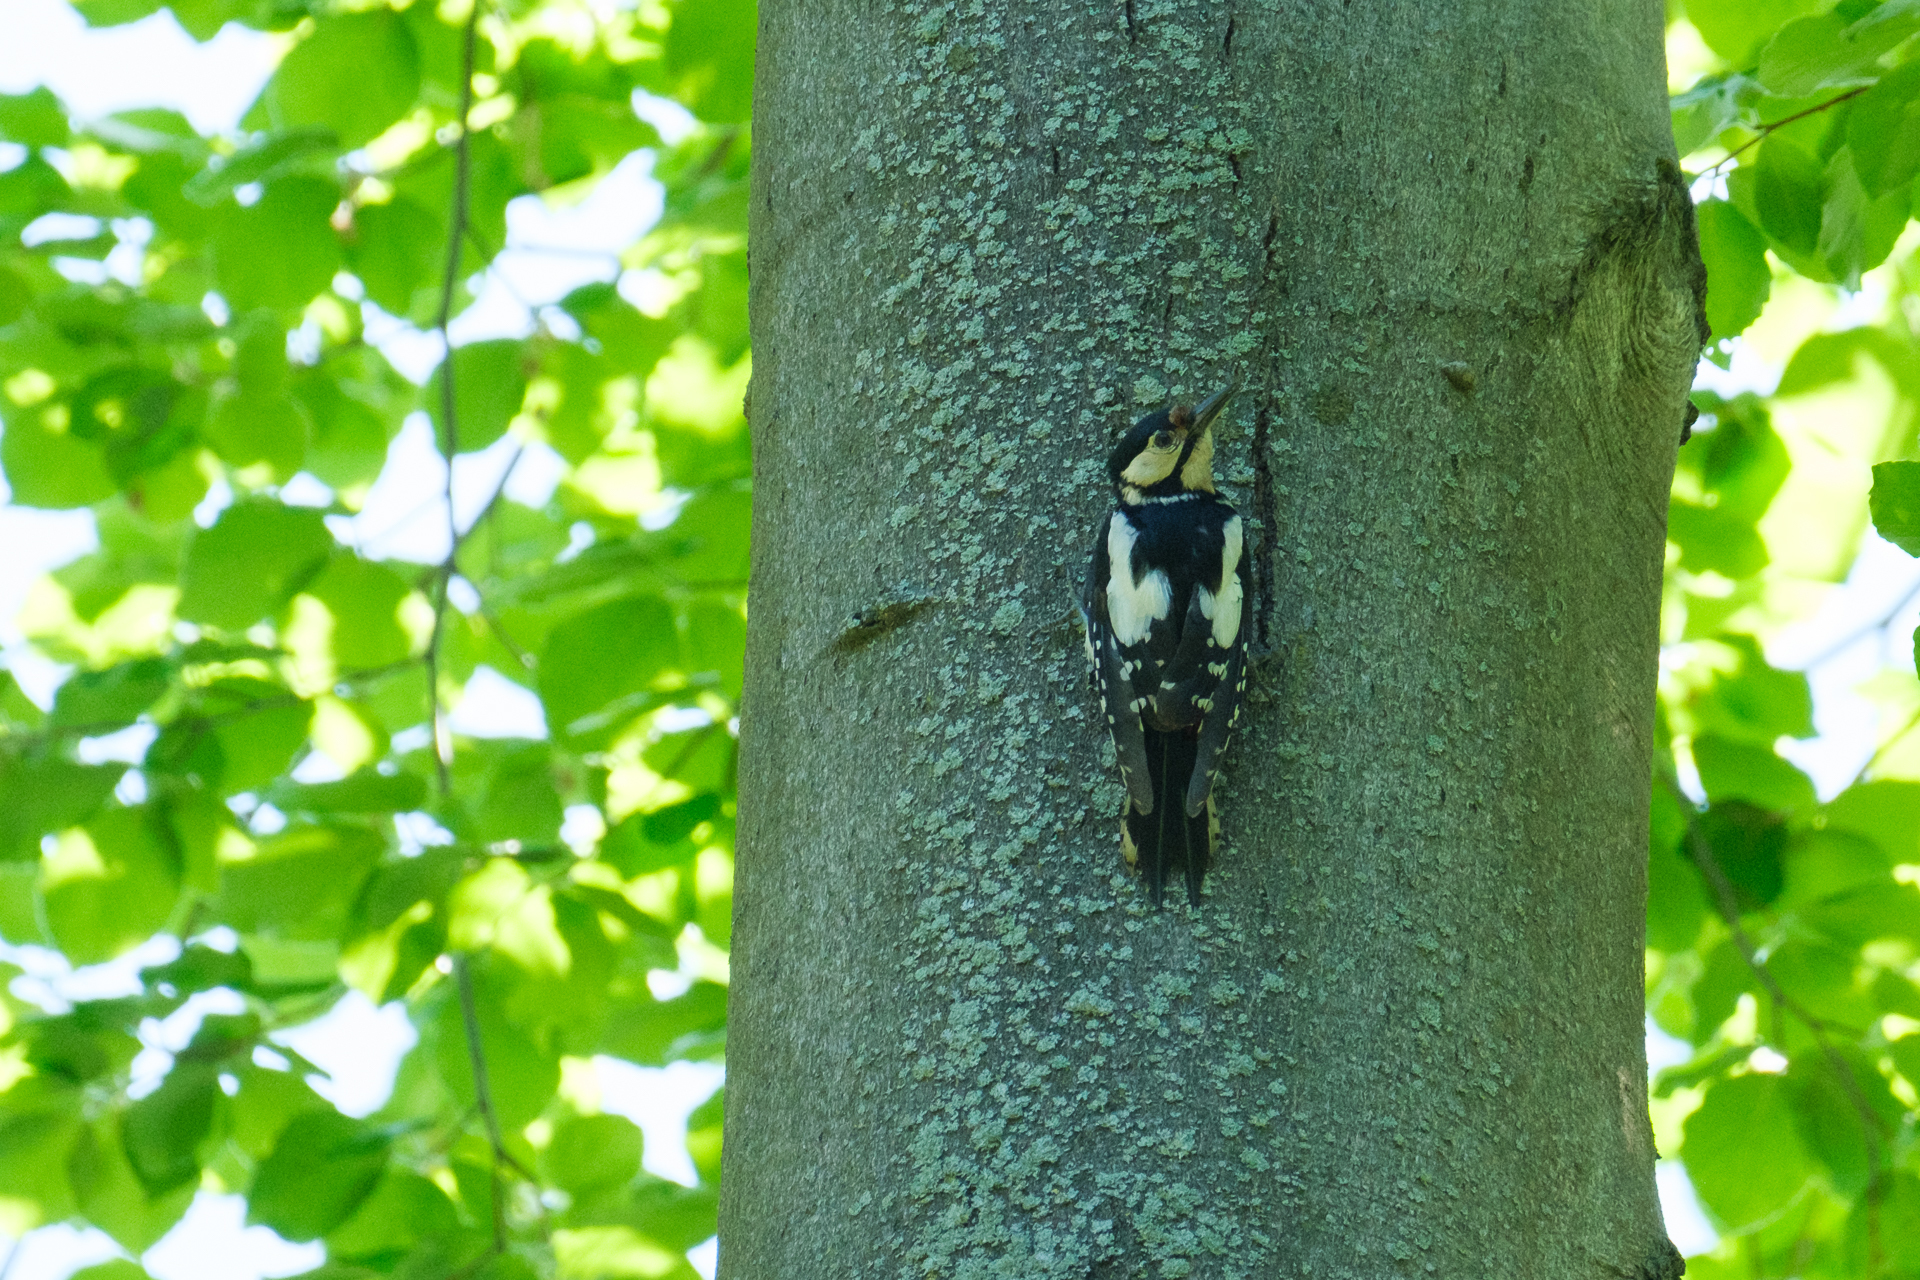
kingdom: Animalia
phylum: Chordata
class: Aves
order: Piciformes
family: Picidae
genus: Dendrocopos
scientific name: Dendrocopos major
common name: Great spotted woodpecker
